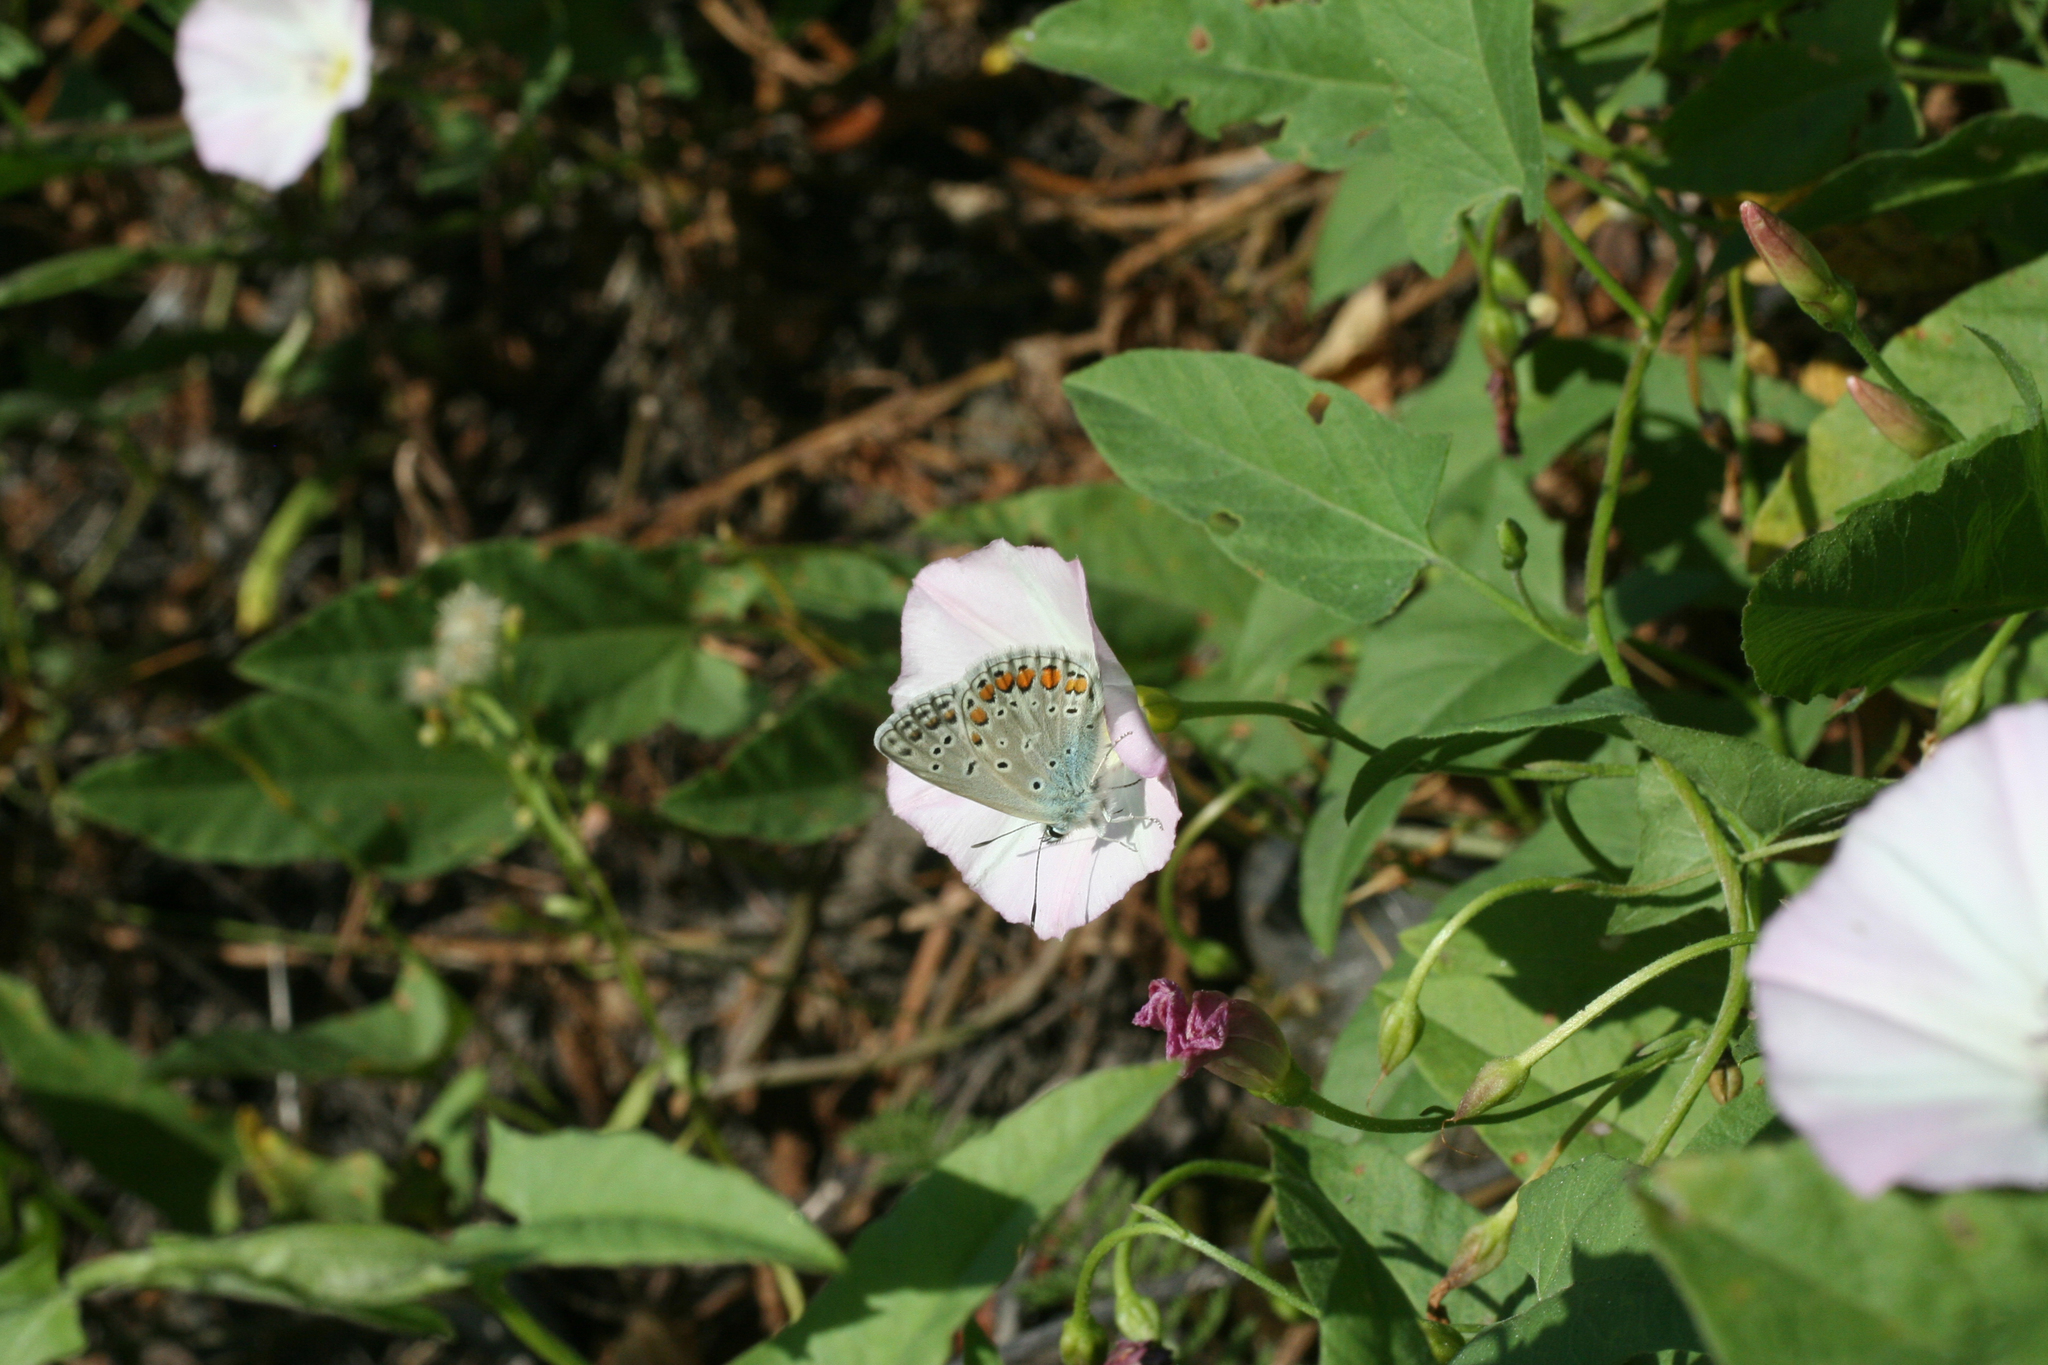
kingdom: Plantae
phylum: Tracheophyta
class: Magnoliopsida
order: Solanales
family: Convolvulaceae
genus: Convolvulus
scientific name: Convolvulus arvensis
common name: Field bindweed
